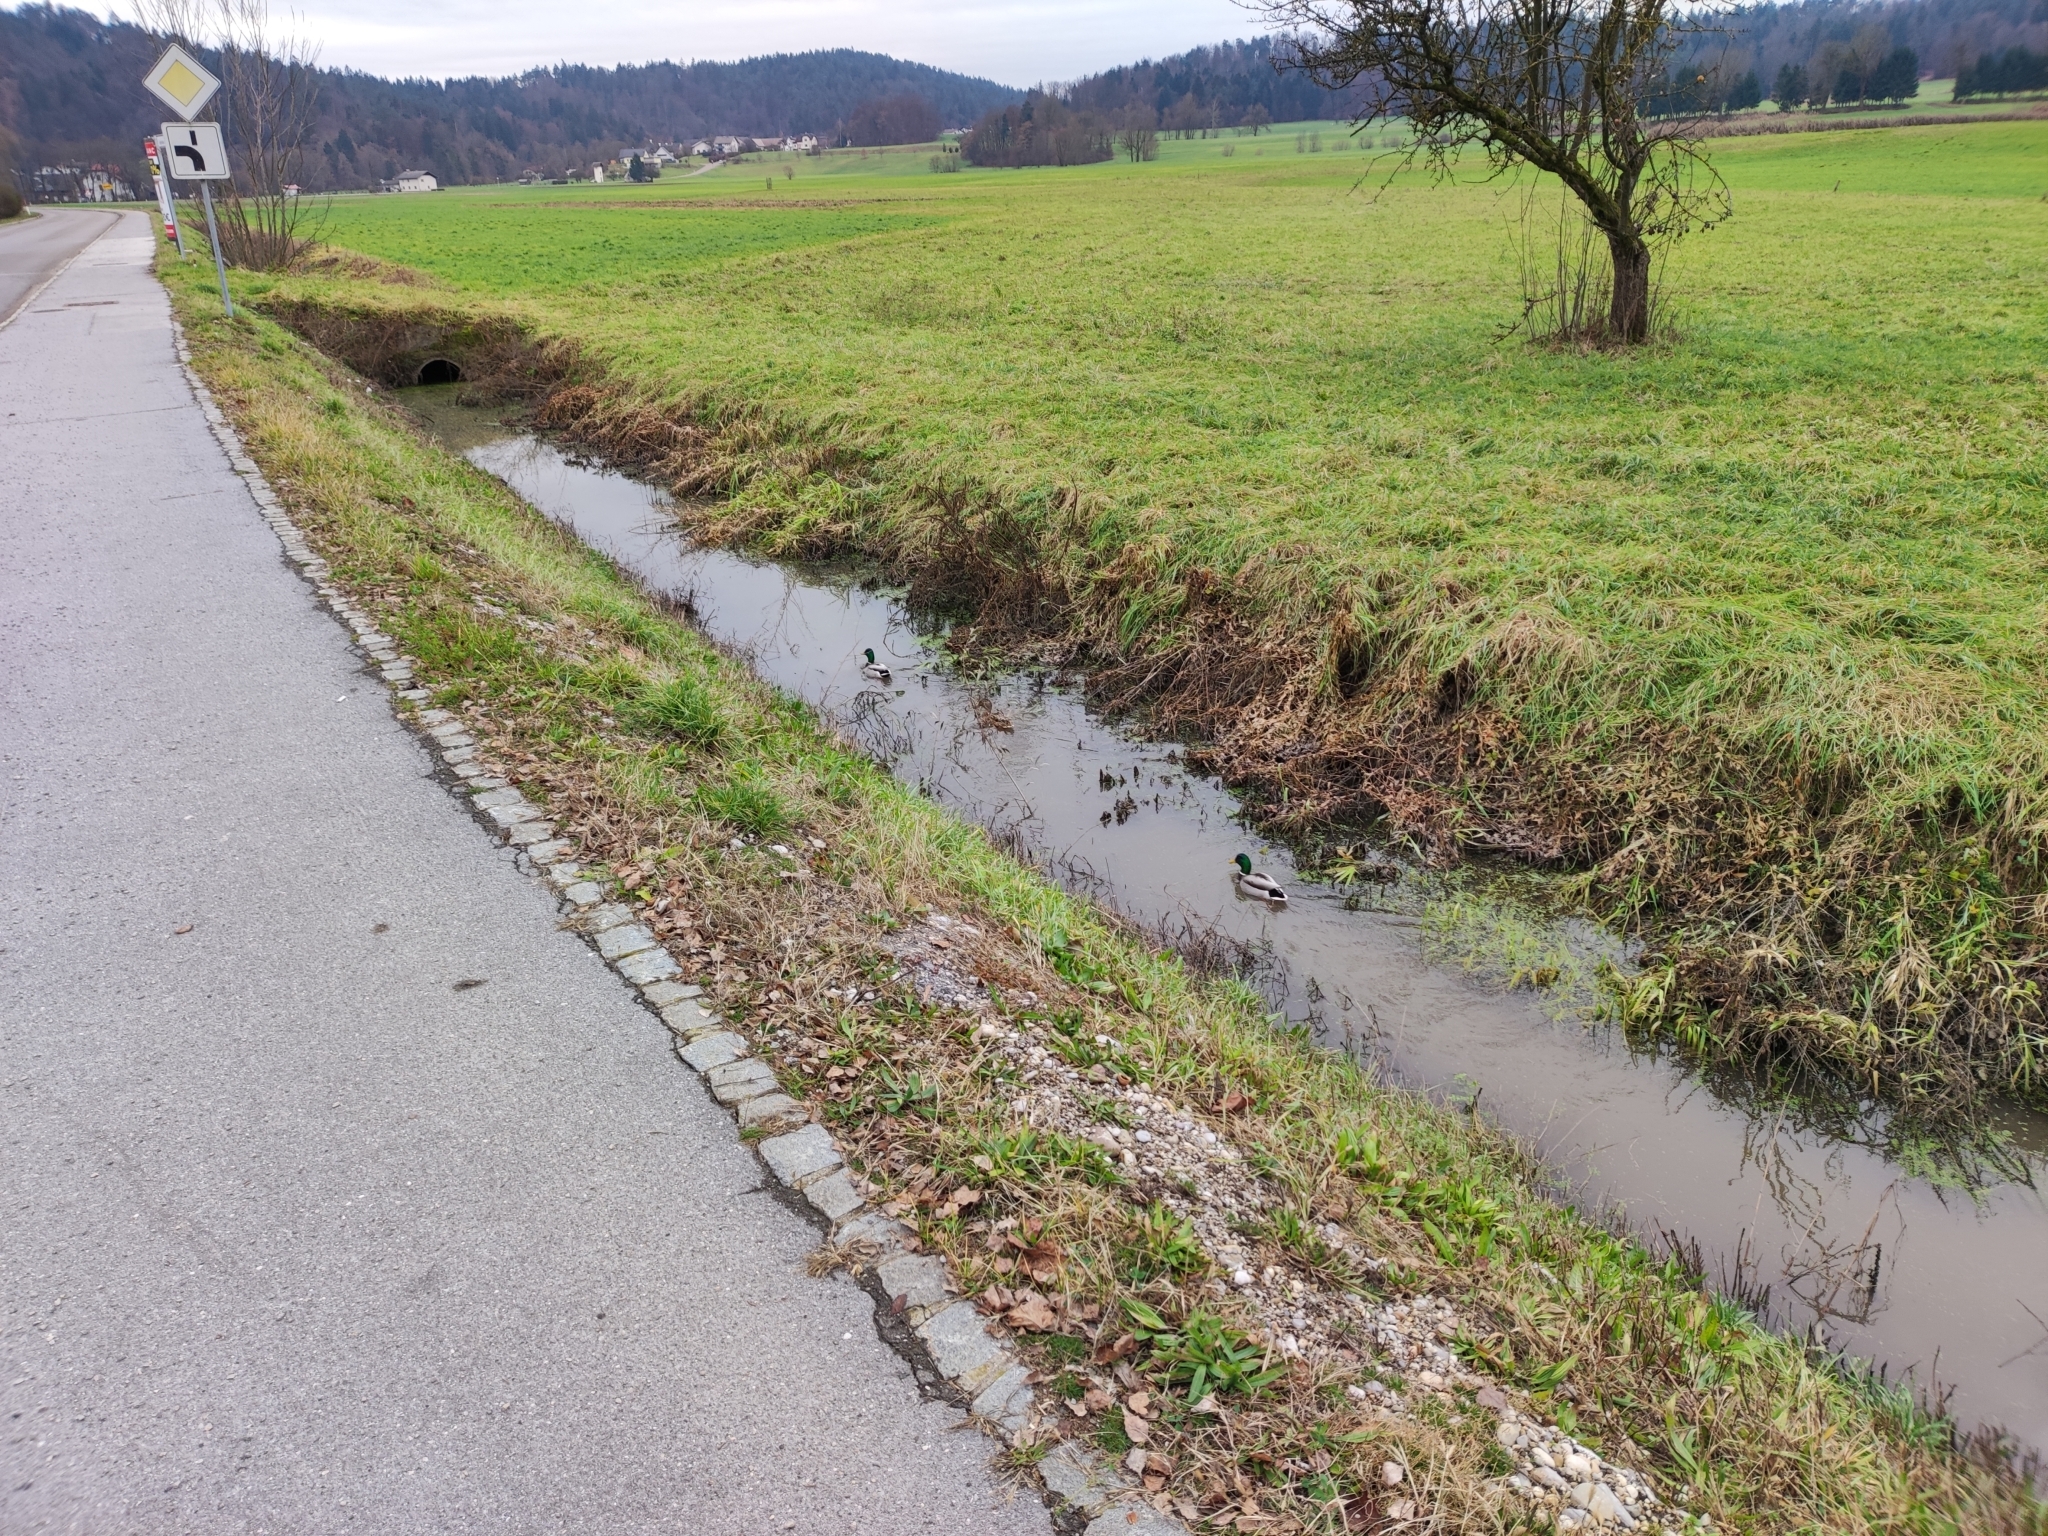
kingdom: Animalia
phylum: Chordata
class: Aves
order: Anseriformes
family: Anatidae
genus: Anas
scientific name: Anas platyrhynchos
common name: Mallard
